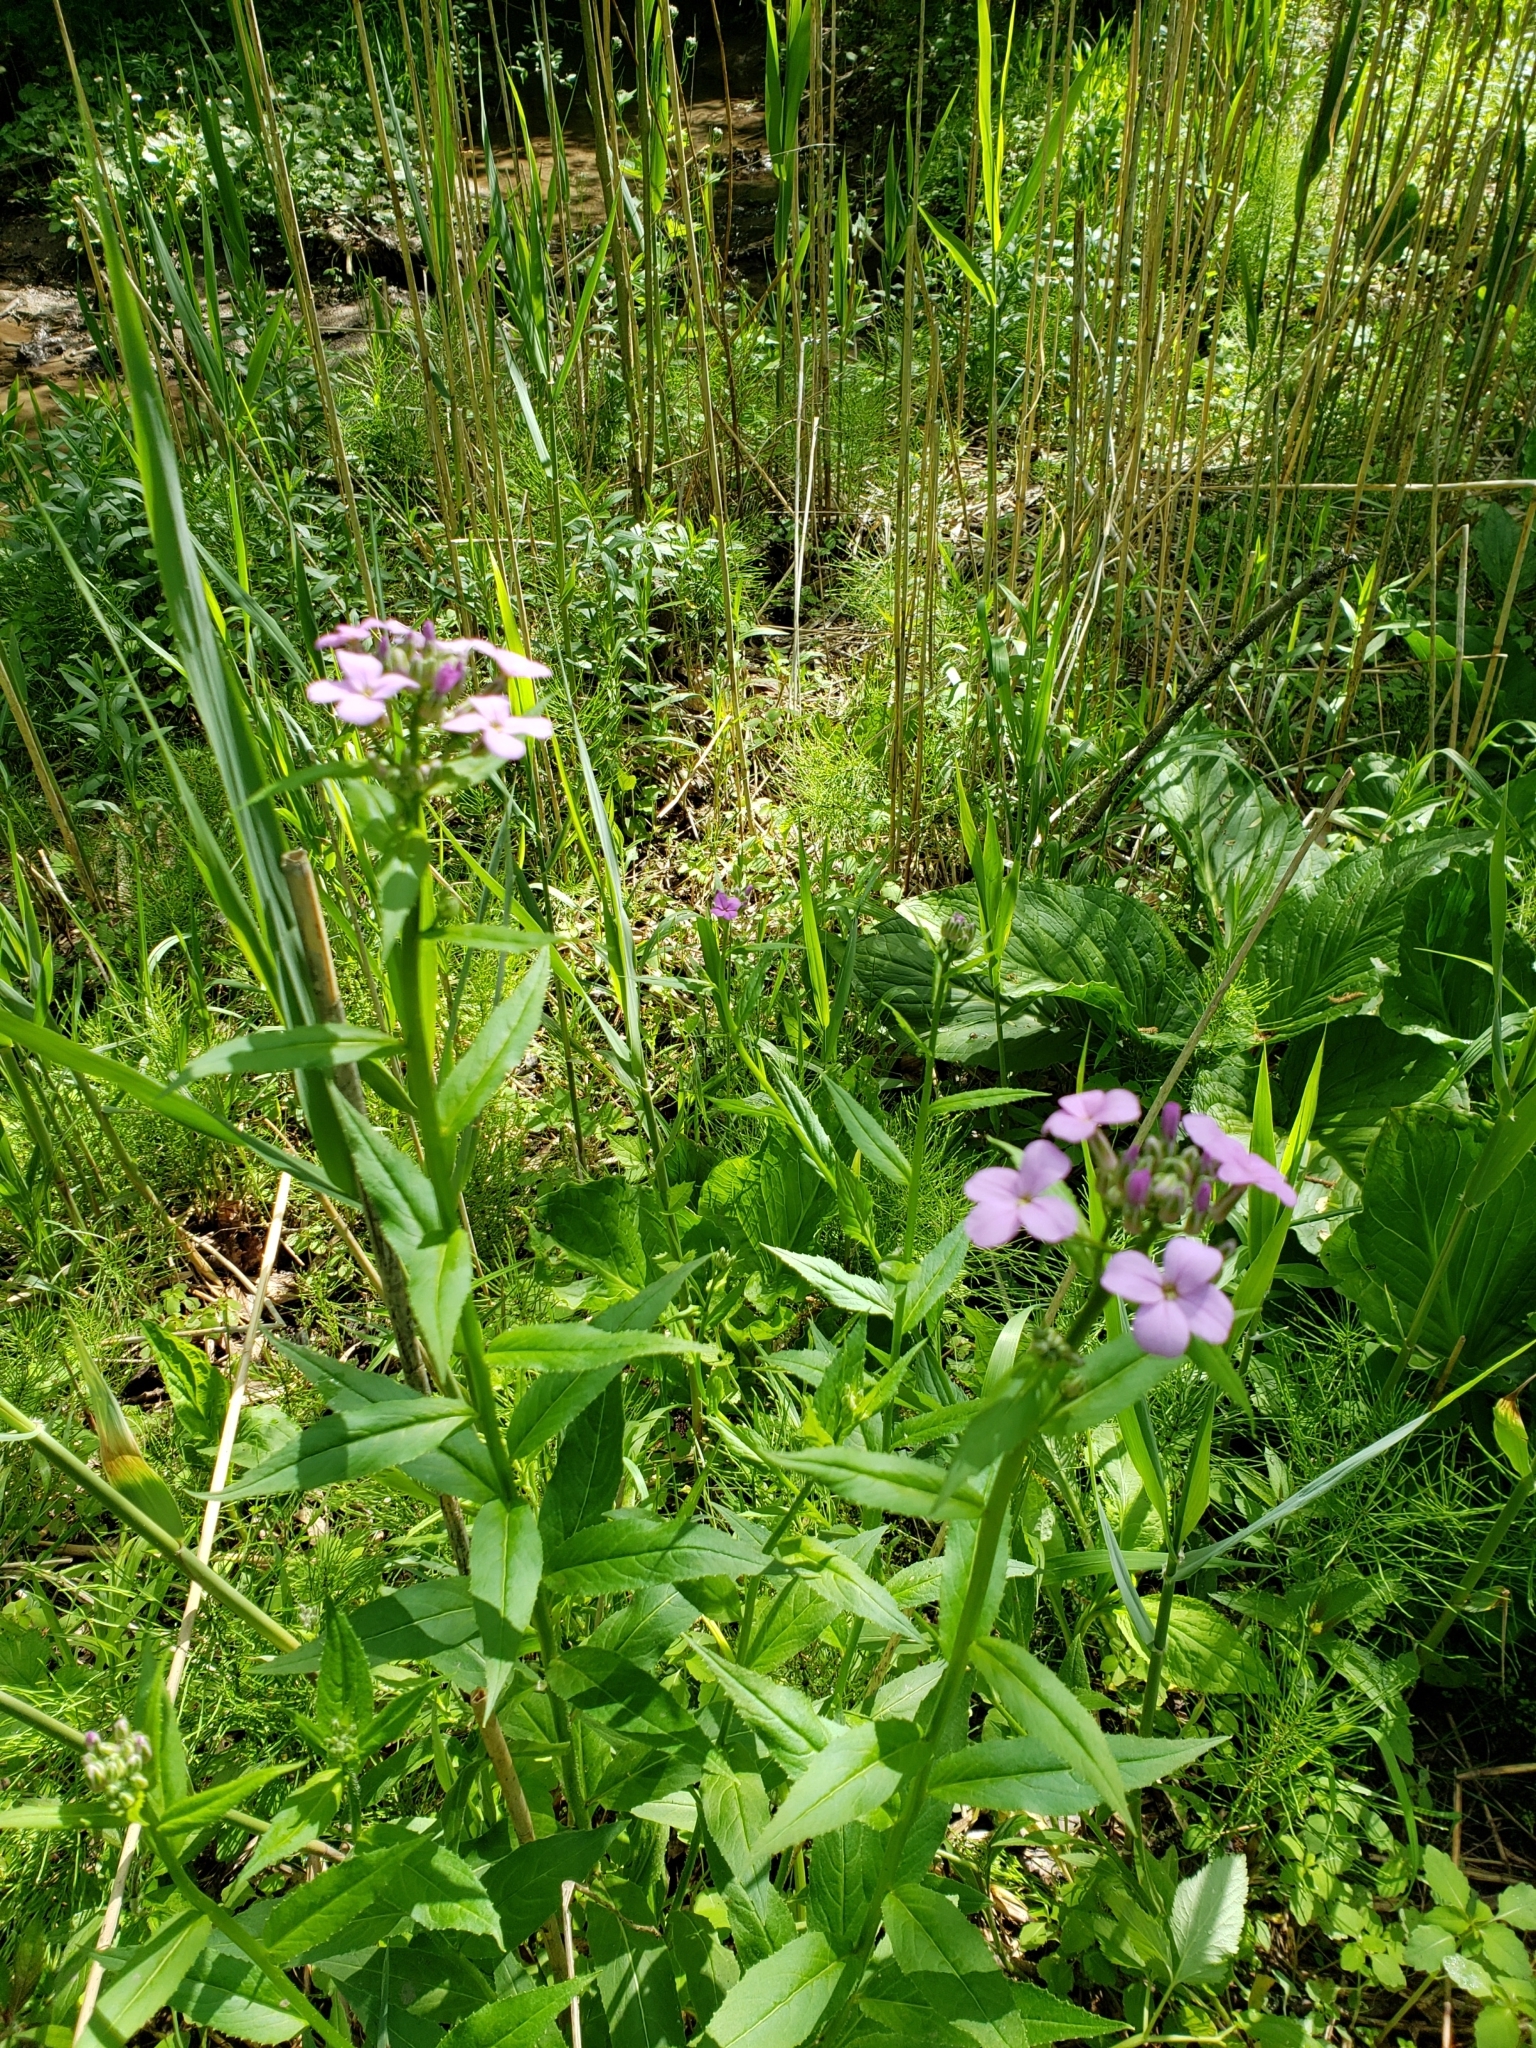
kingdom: Plantae
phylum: Tracheophyta
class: Magnoliopsida
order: Brassicales
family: Brassicaceae
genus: Hesperis
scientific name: Hesperis matronalis
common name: Dame's-violet
